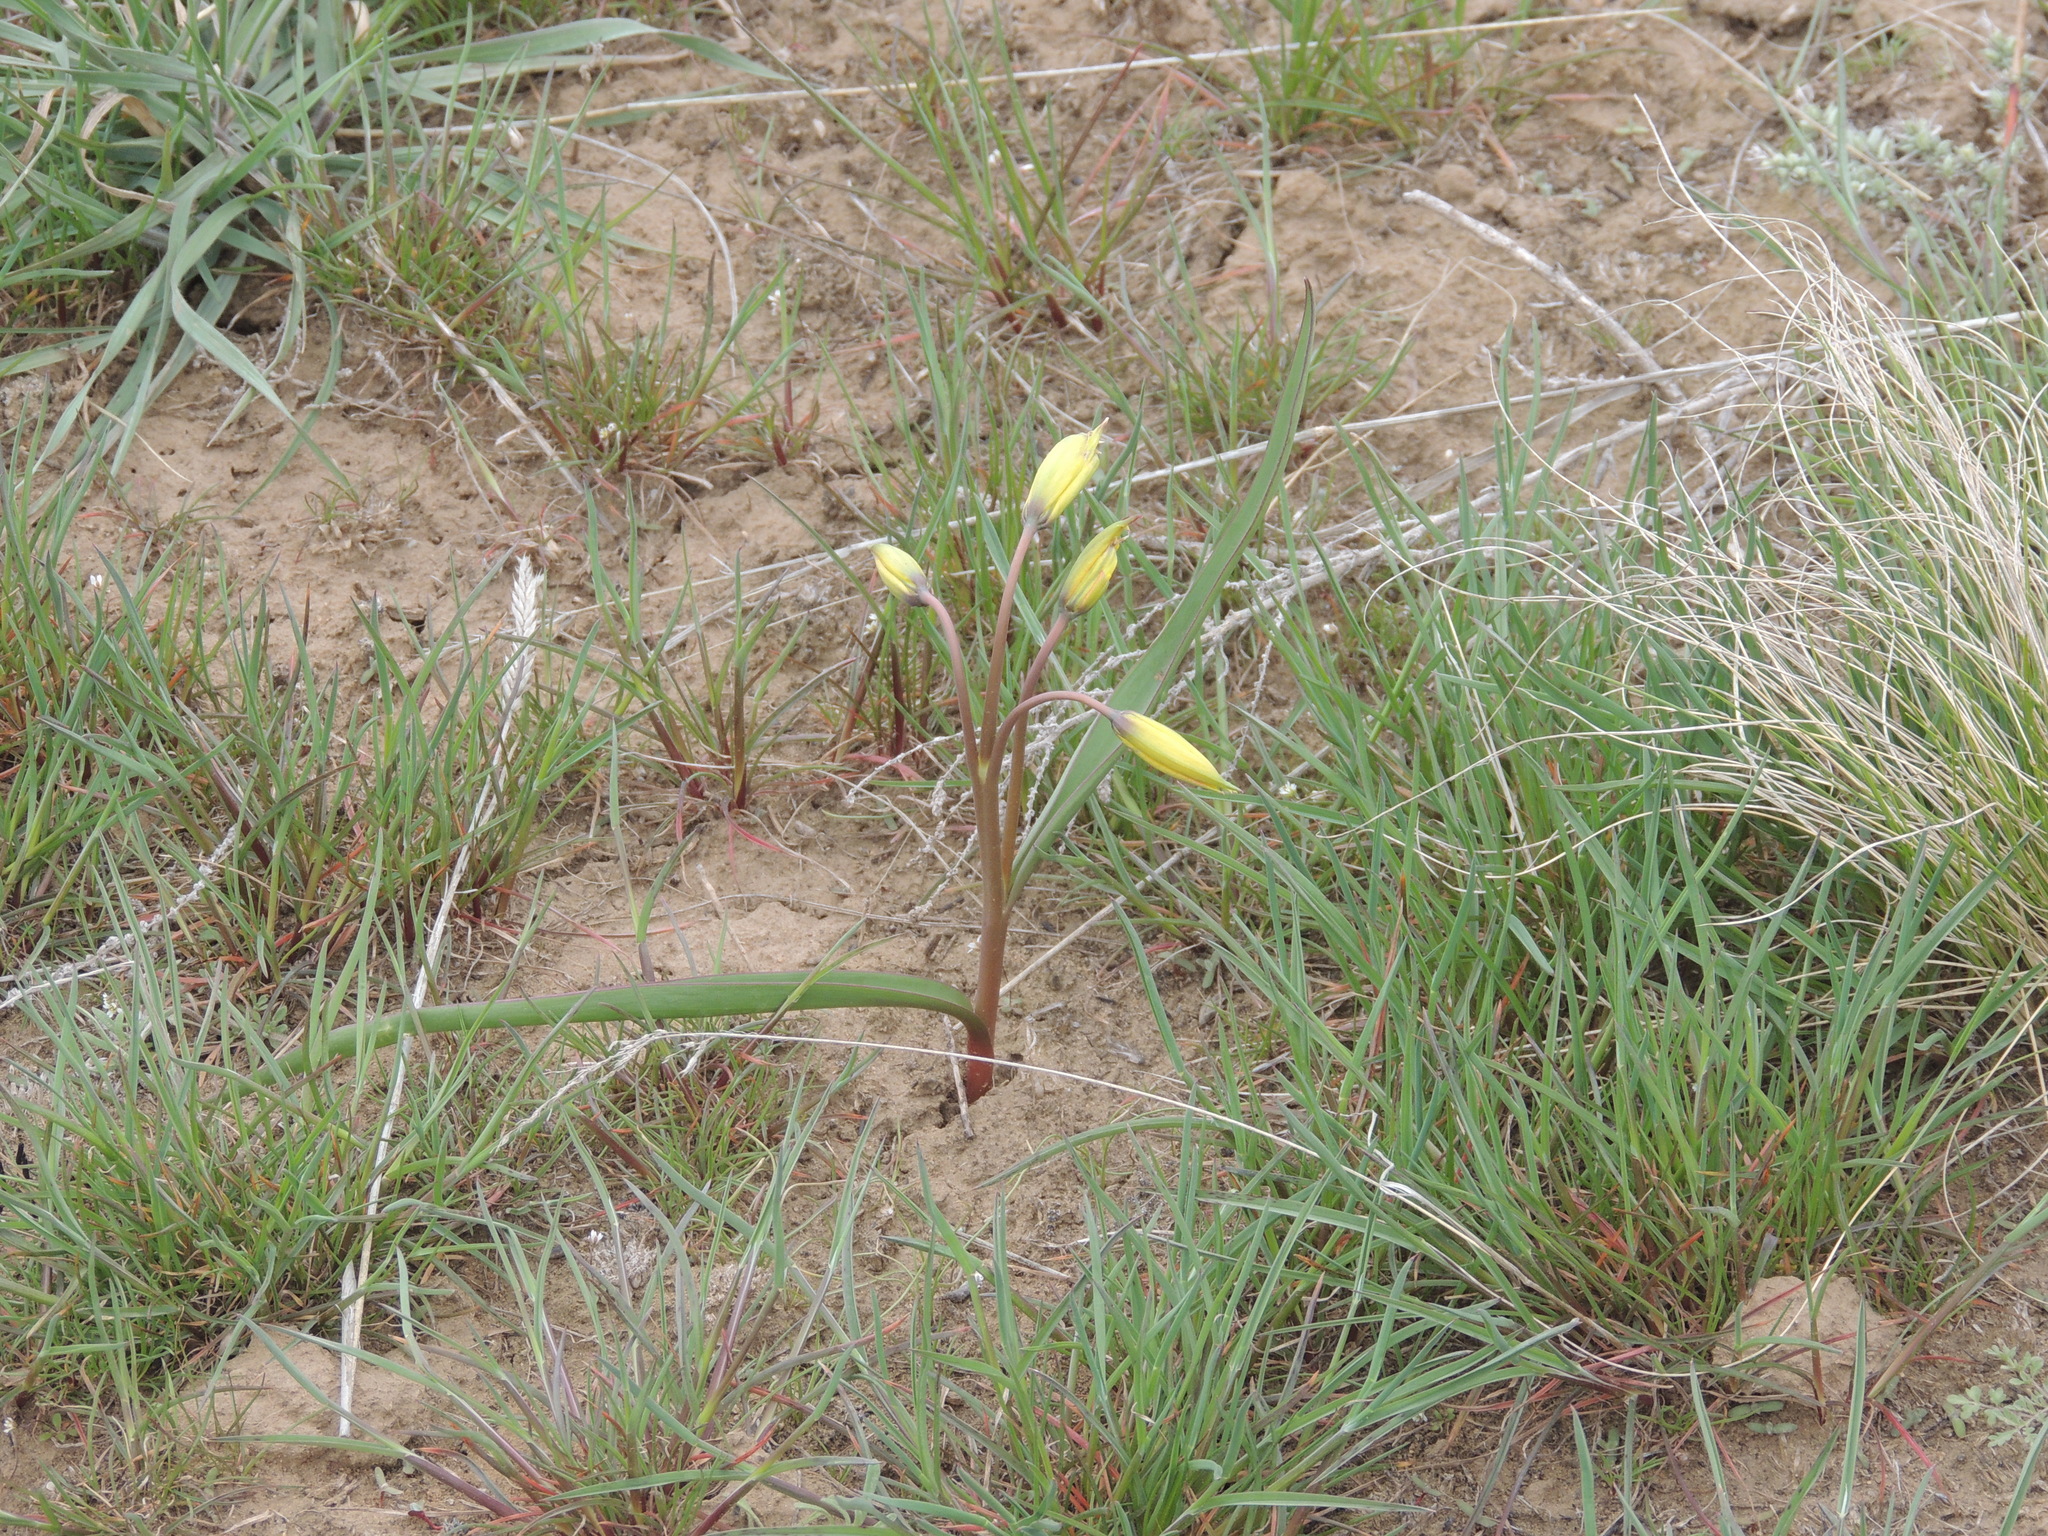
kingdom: Plantae
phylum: Tracheophyta
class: Liliopsida
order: Liliales
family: Liliaceae
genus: Tulipa
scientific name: Tulipa sylvestris
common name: Wild tulip
